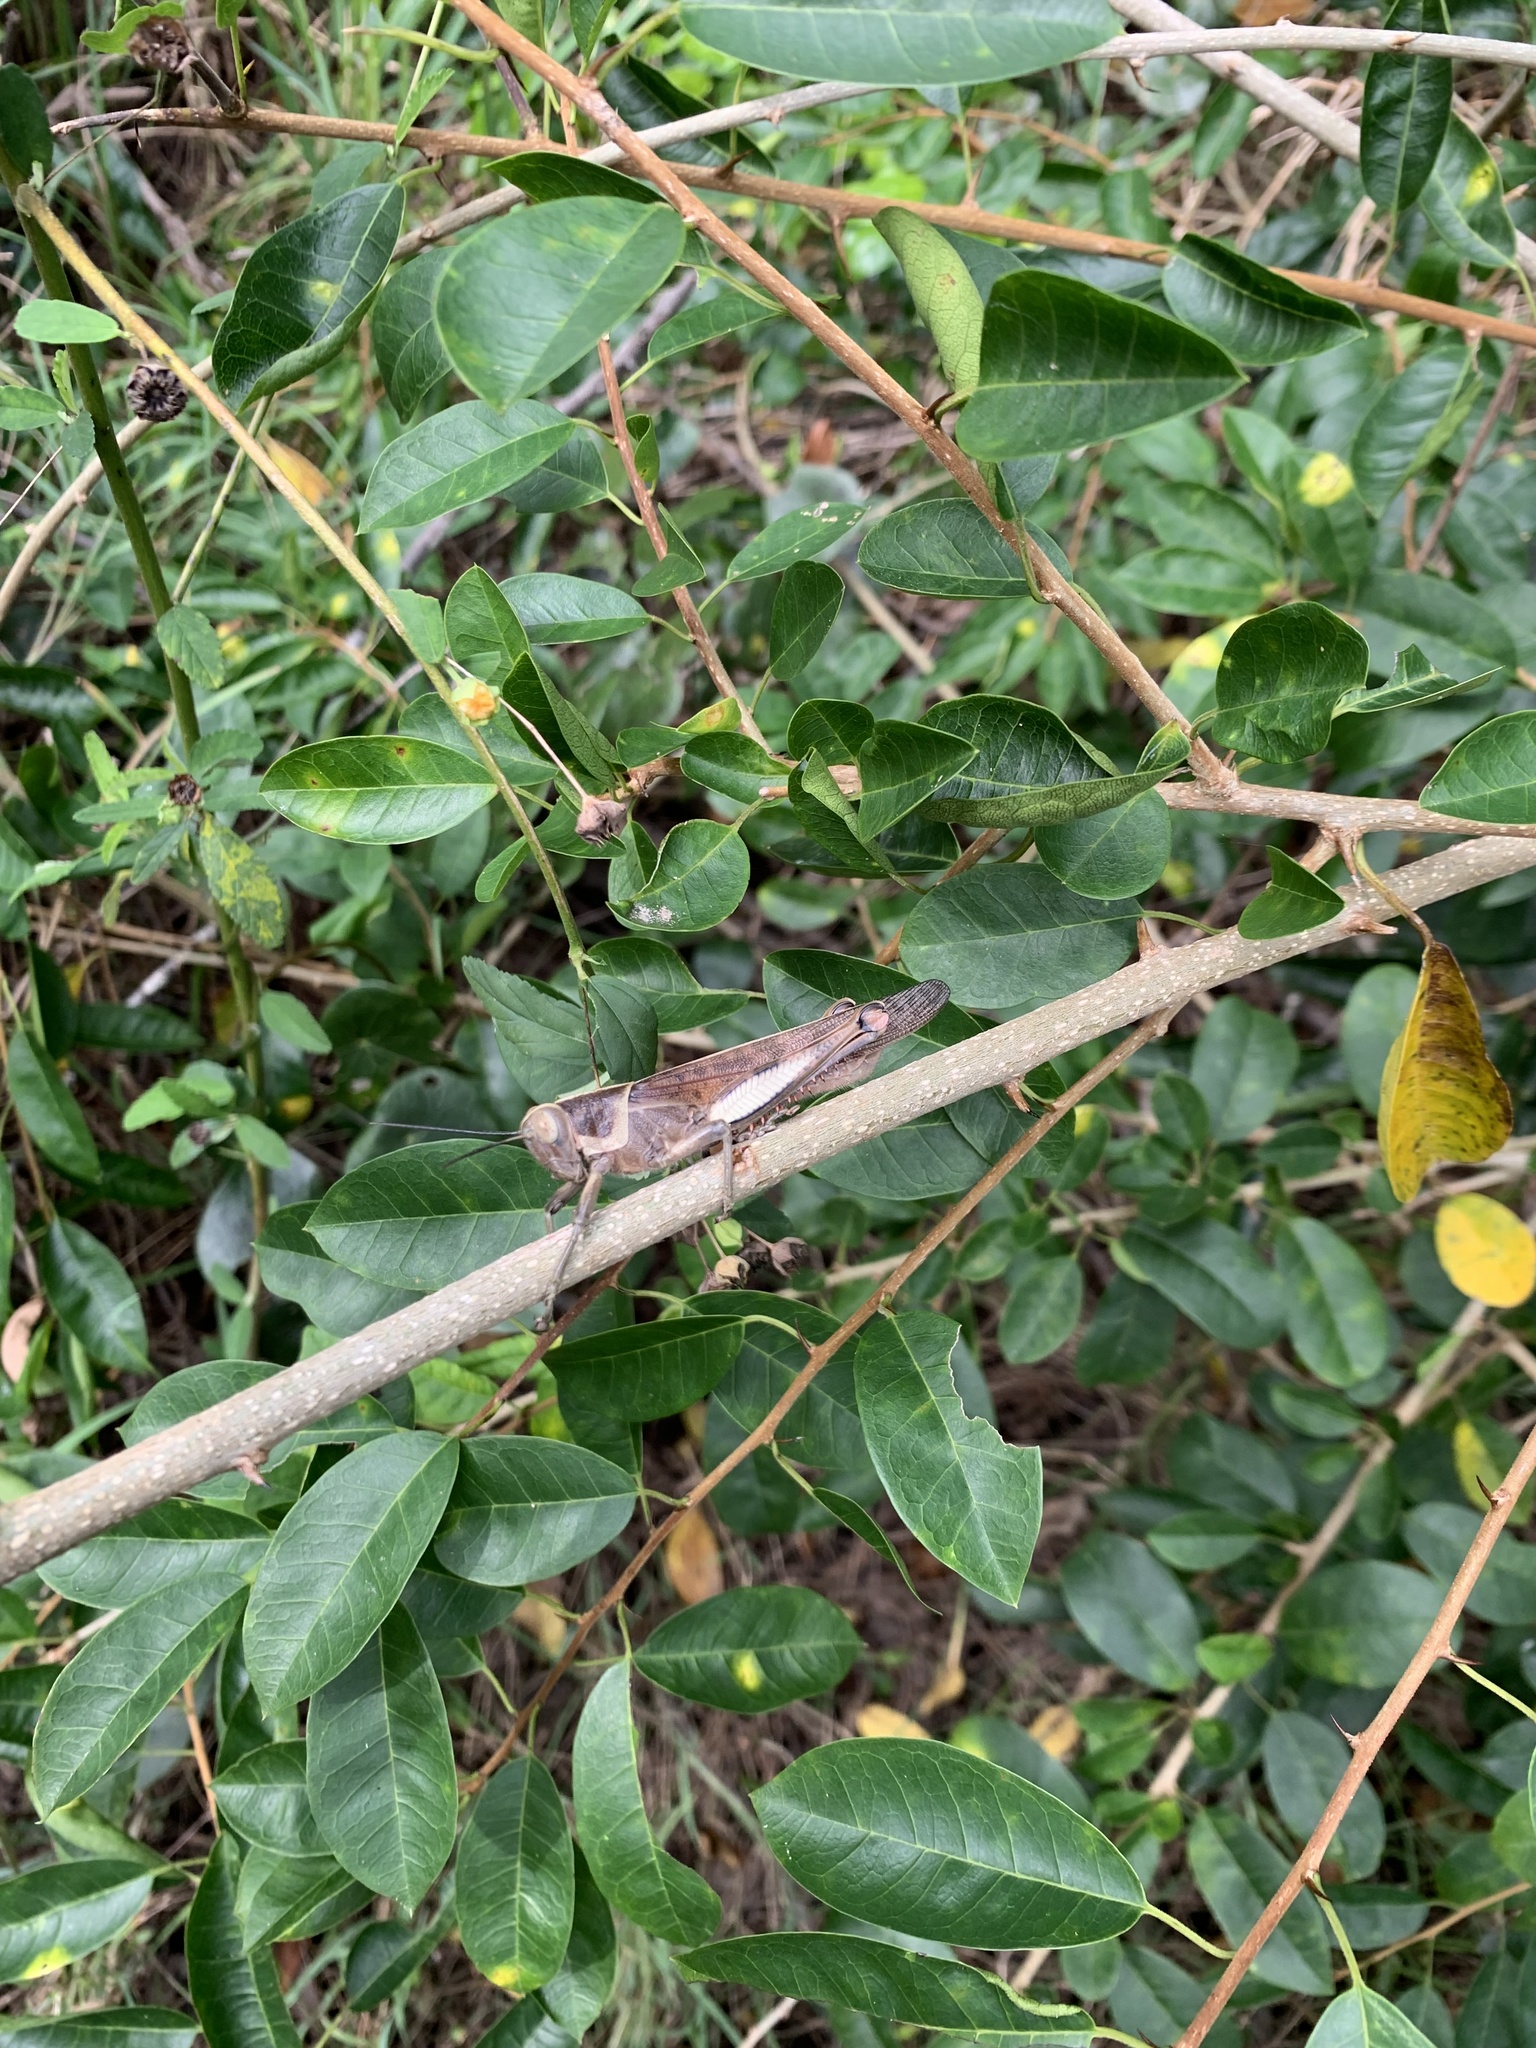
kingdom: Animalia
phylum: Arthropoda
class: Insecta
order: Orthoptera
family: Acrididae
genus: Valanga
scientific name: Valanga irregularis
